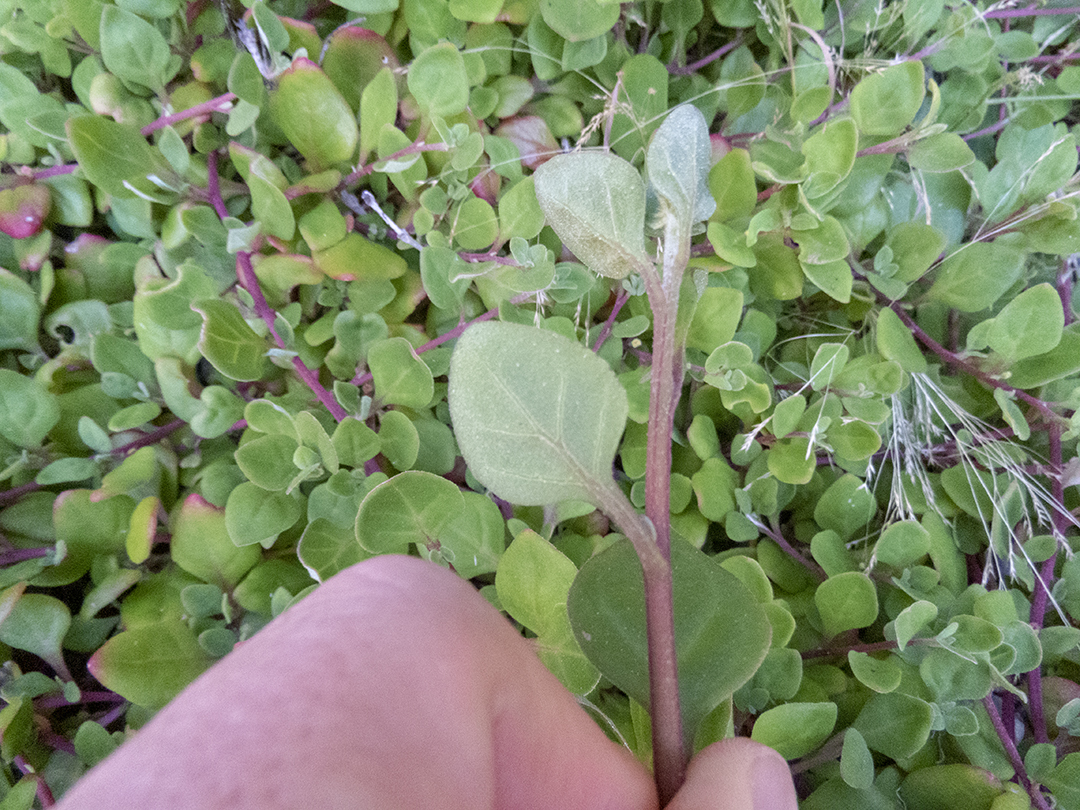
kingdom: Plantae
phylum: Tracheophyta
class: Magnoliopsida
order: Caryophyllales
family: Aizoaceae
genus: Tetragonia
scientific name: Tetragonia implexicoma
